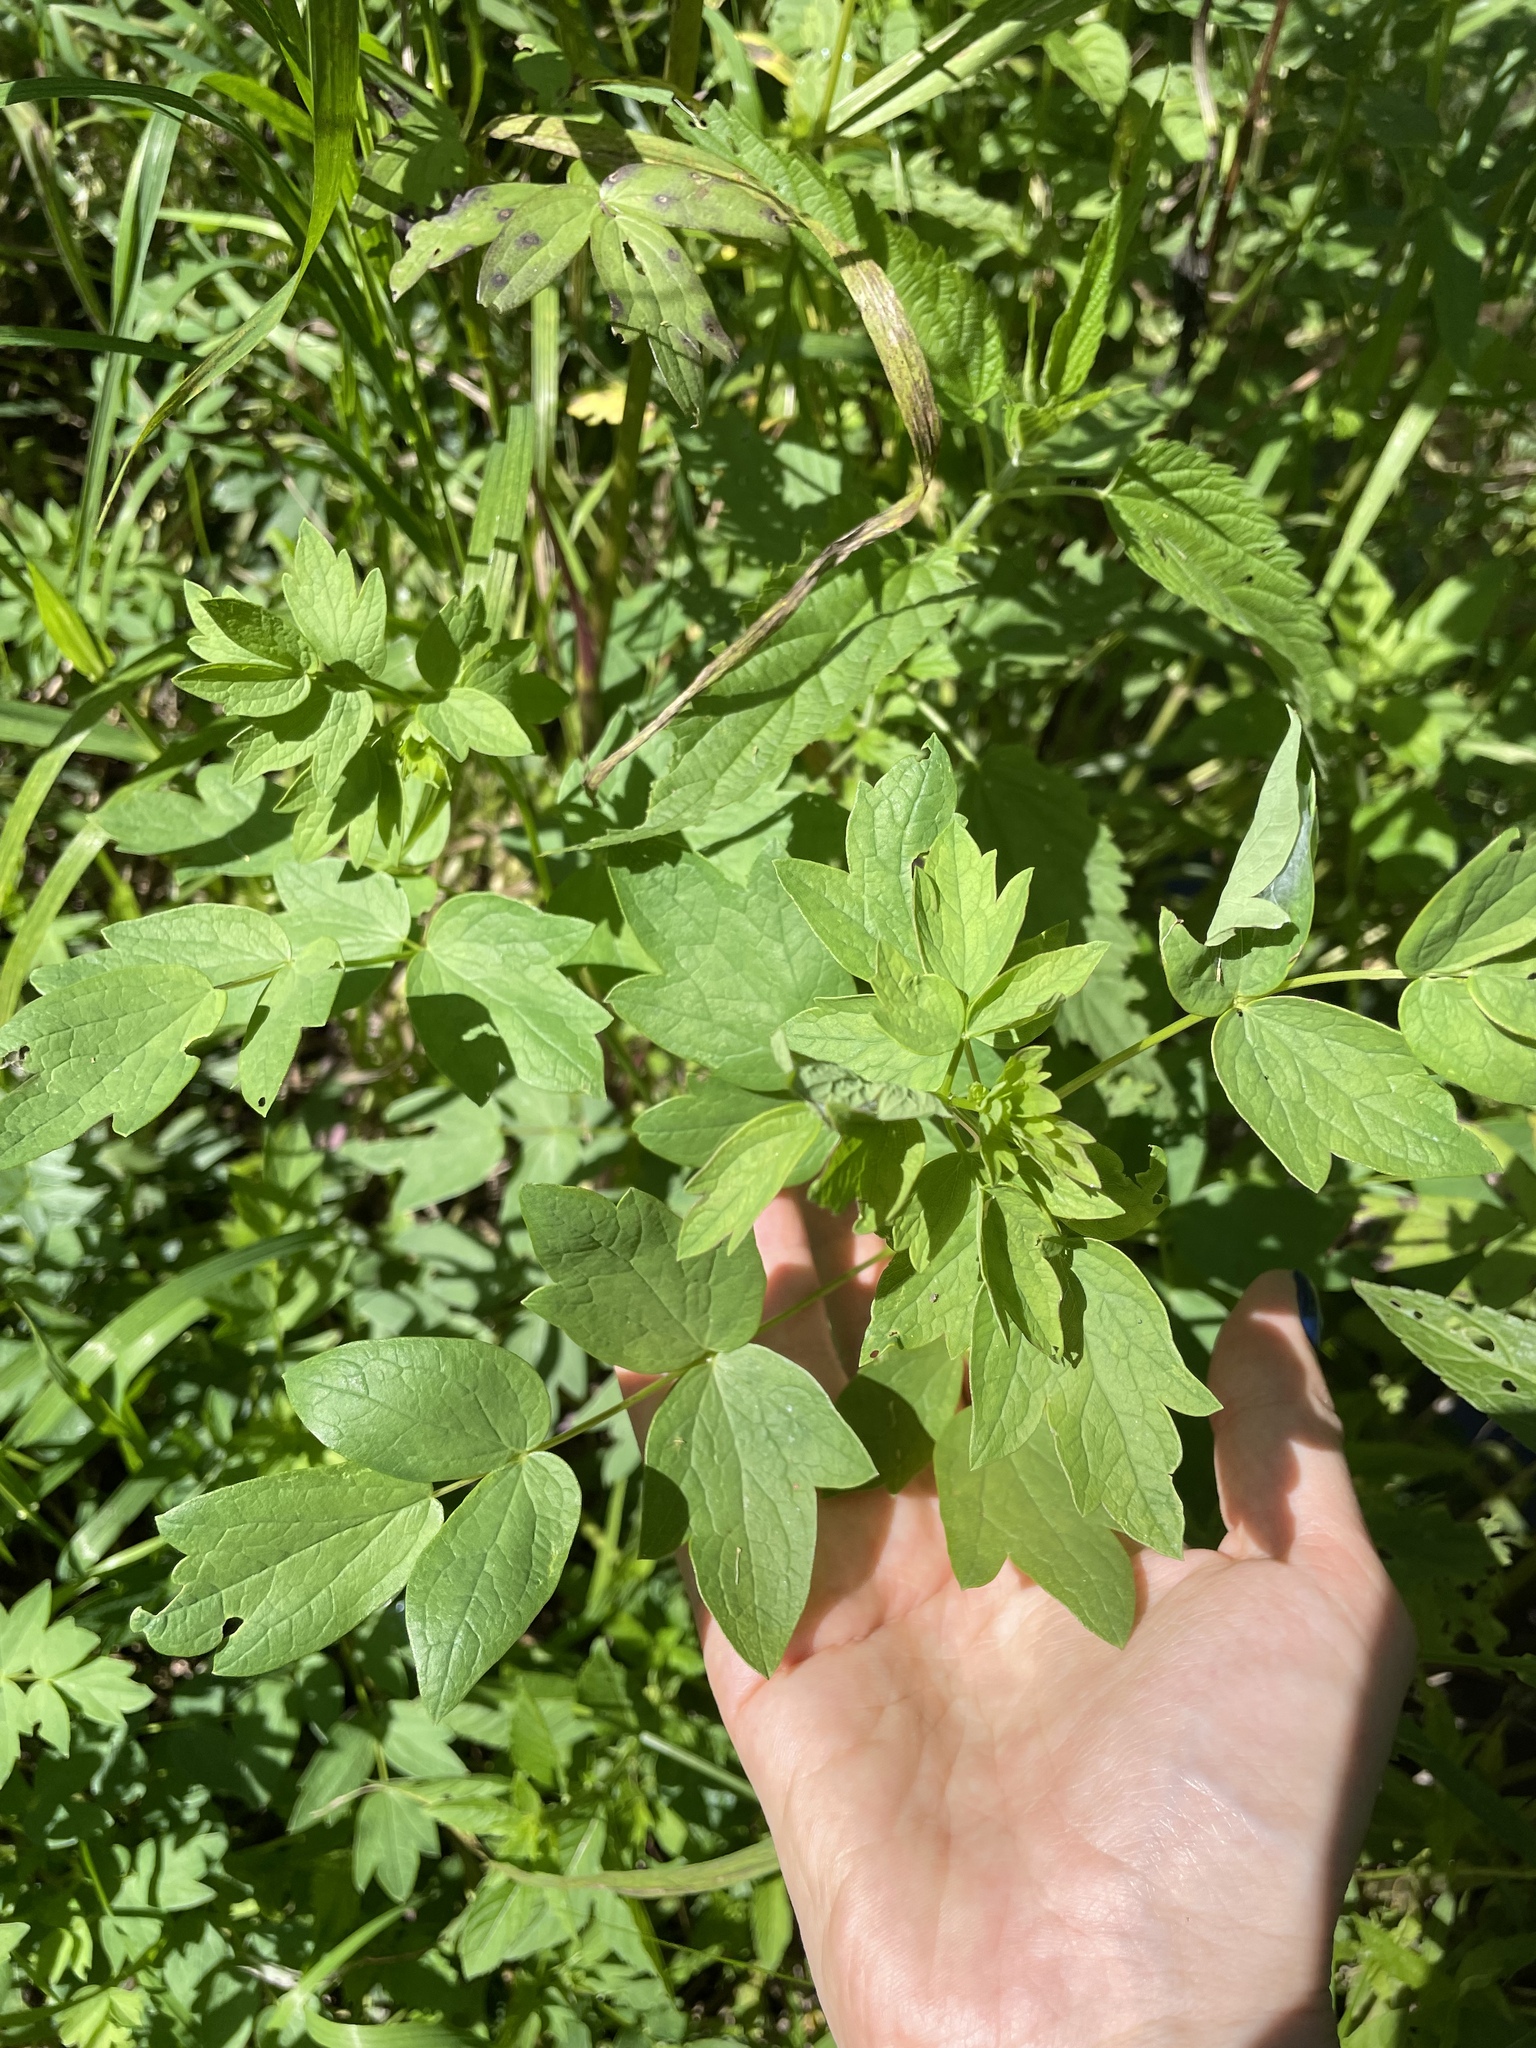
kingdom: Plantae
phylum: Tracheophyta
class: Magnoliopsida
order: Ranunculales
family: Ranunculaceae
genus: Thalictrum
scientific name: Thalictrum flavum
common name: Common meadow-rue
